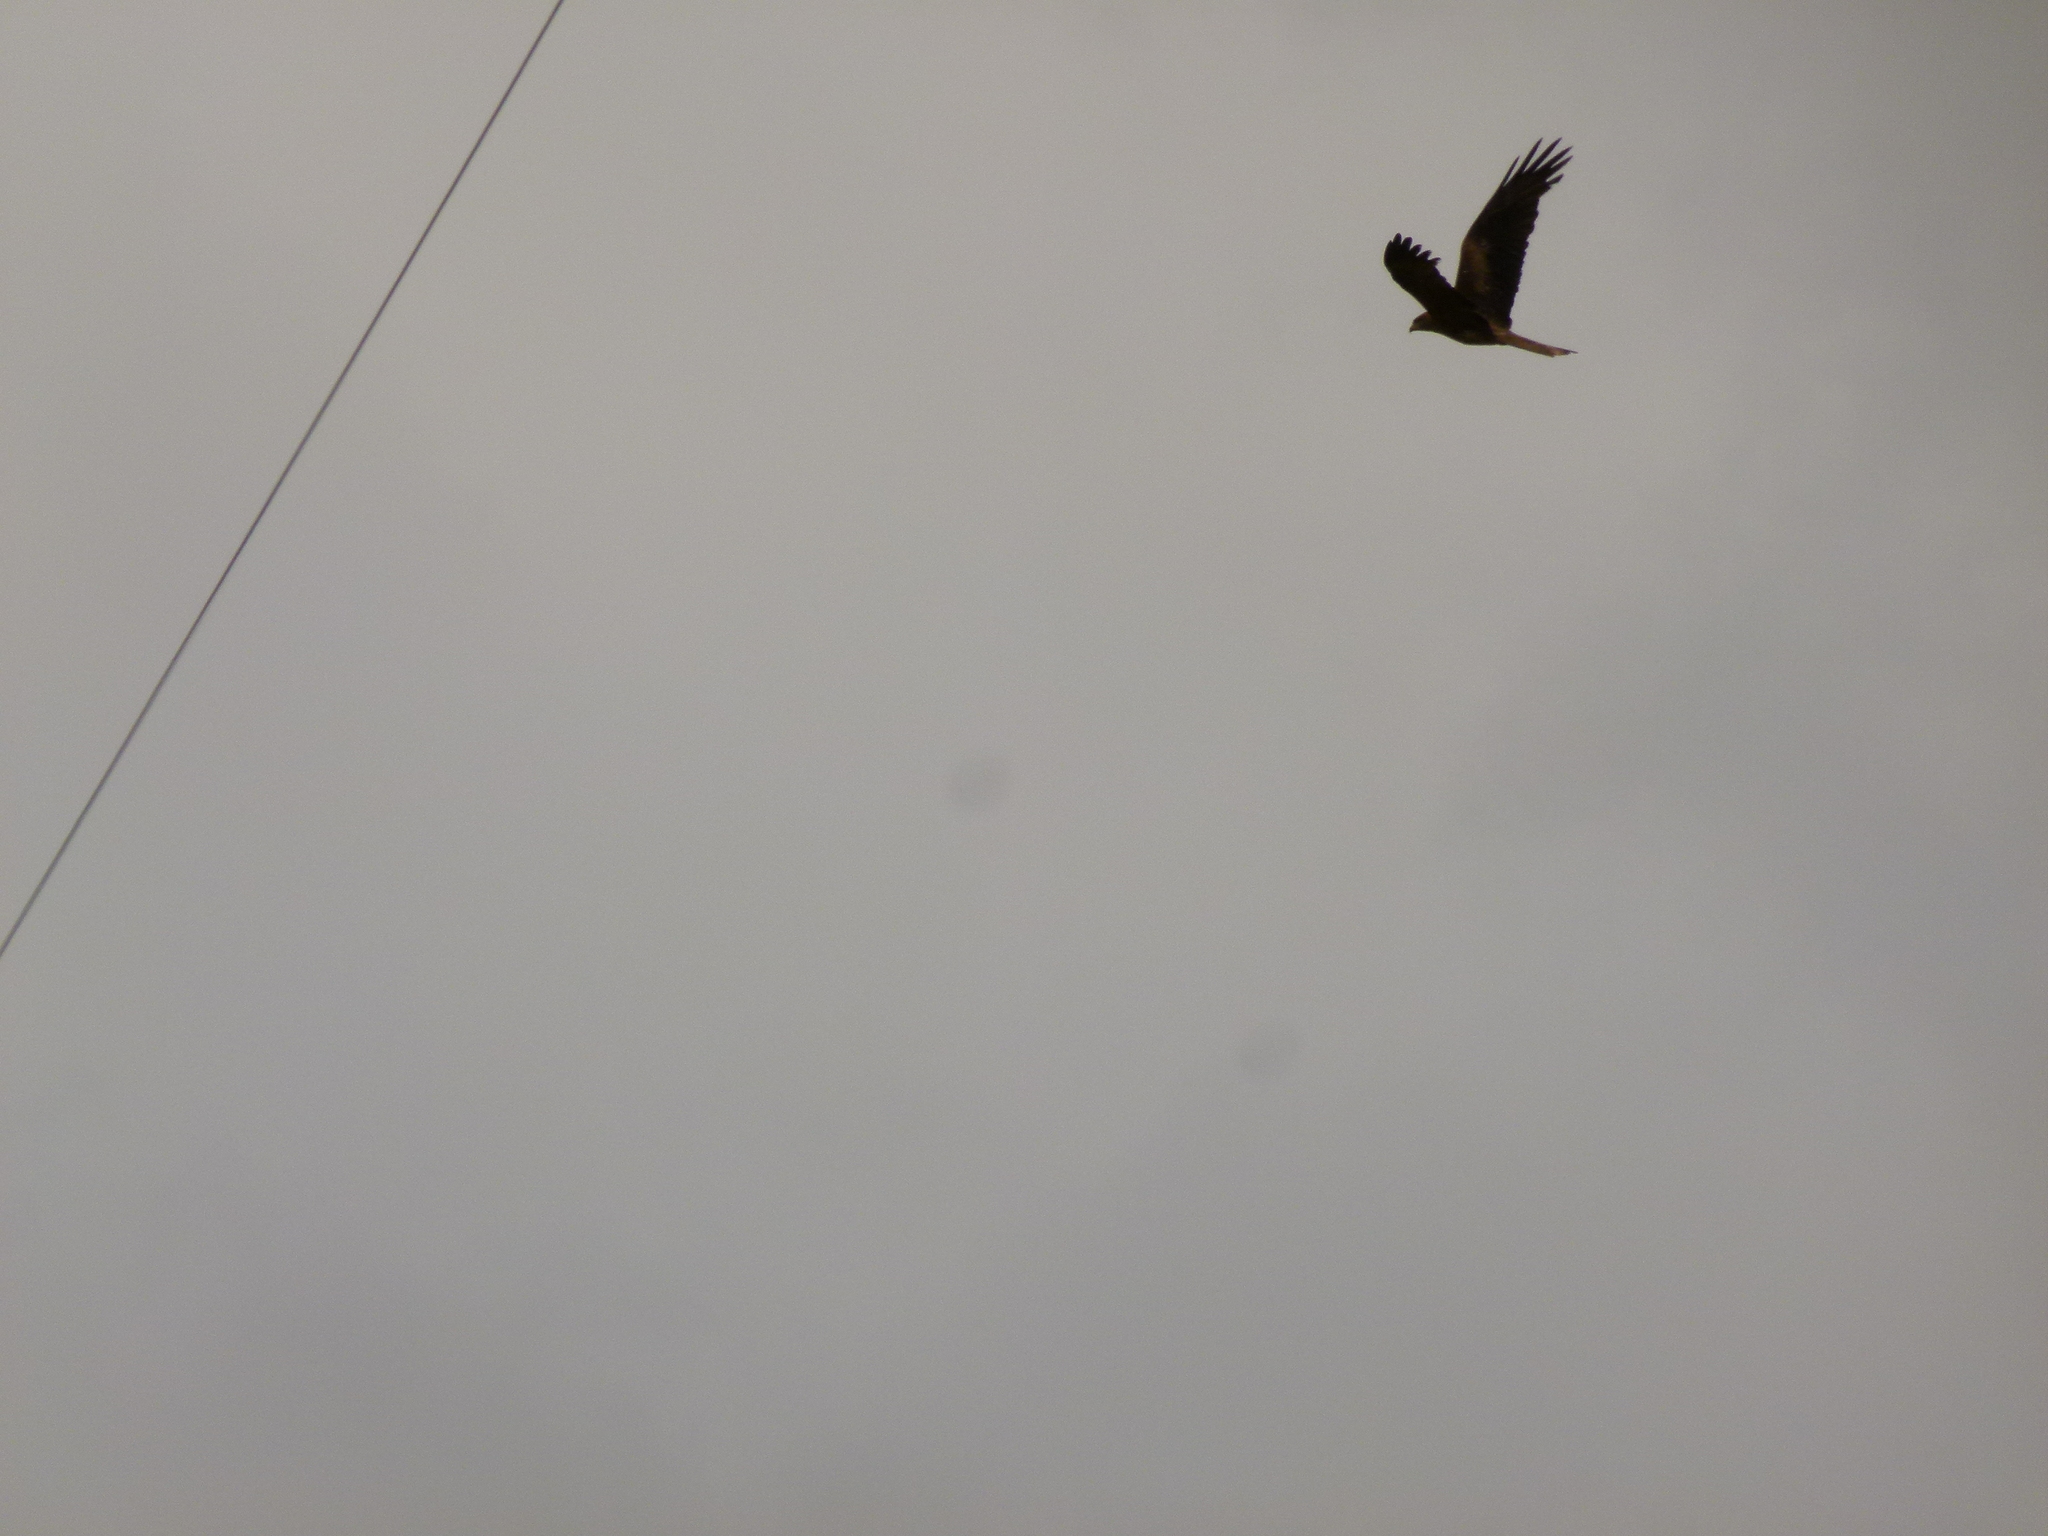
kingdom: Animalia
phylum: Chordata
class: Aves
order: Accipitriformes
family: Accipitridae
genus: Milvus
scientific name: Milvus migrans
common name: Black kite
